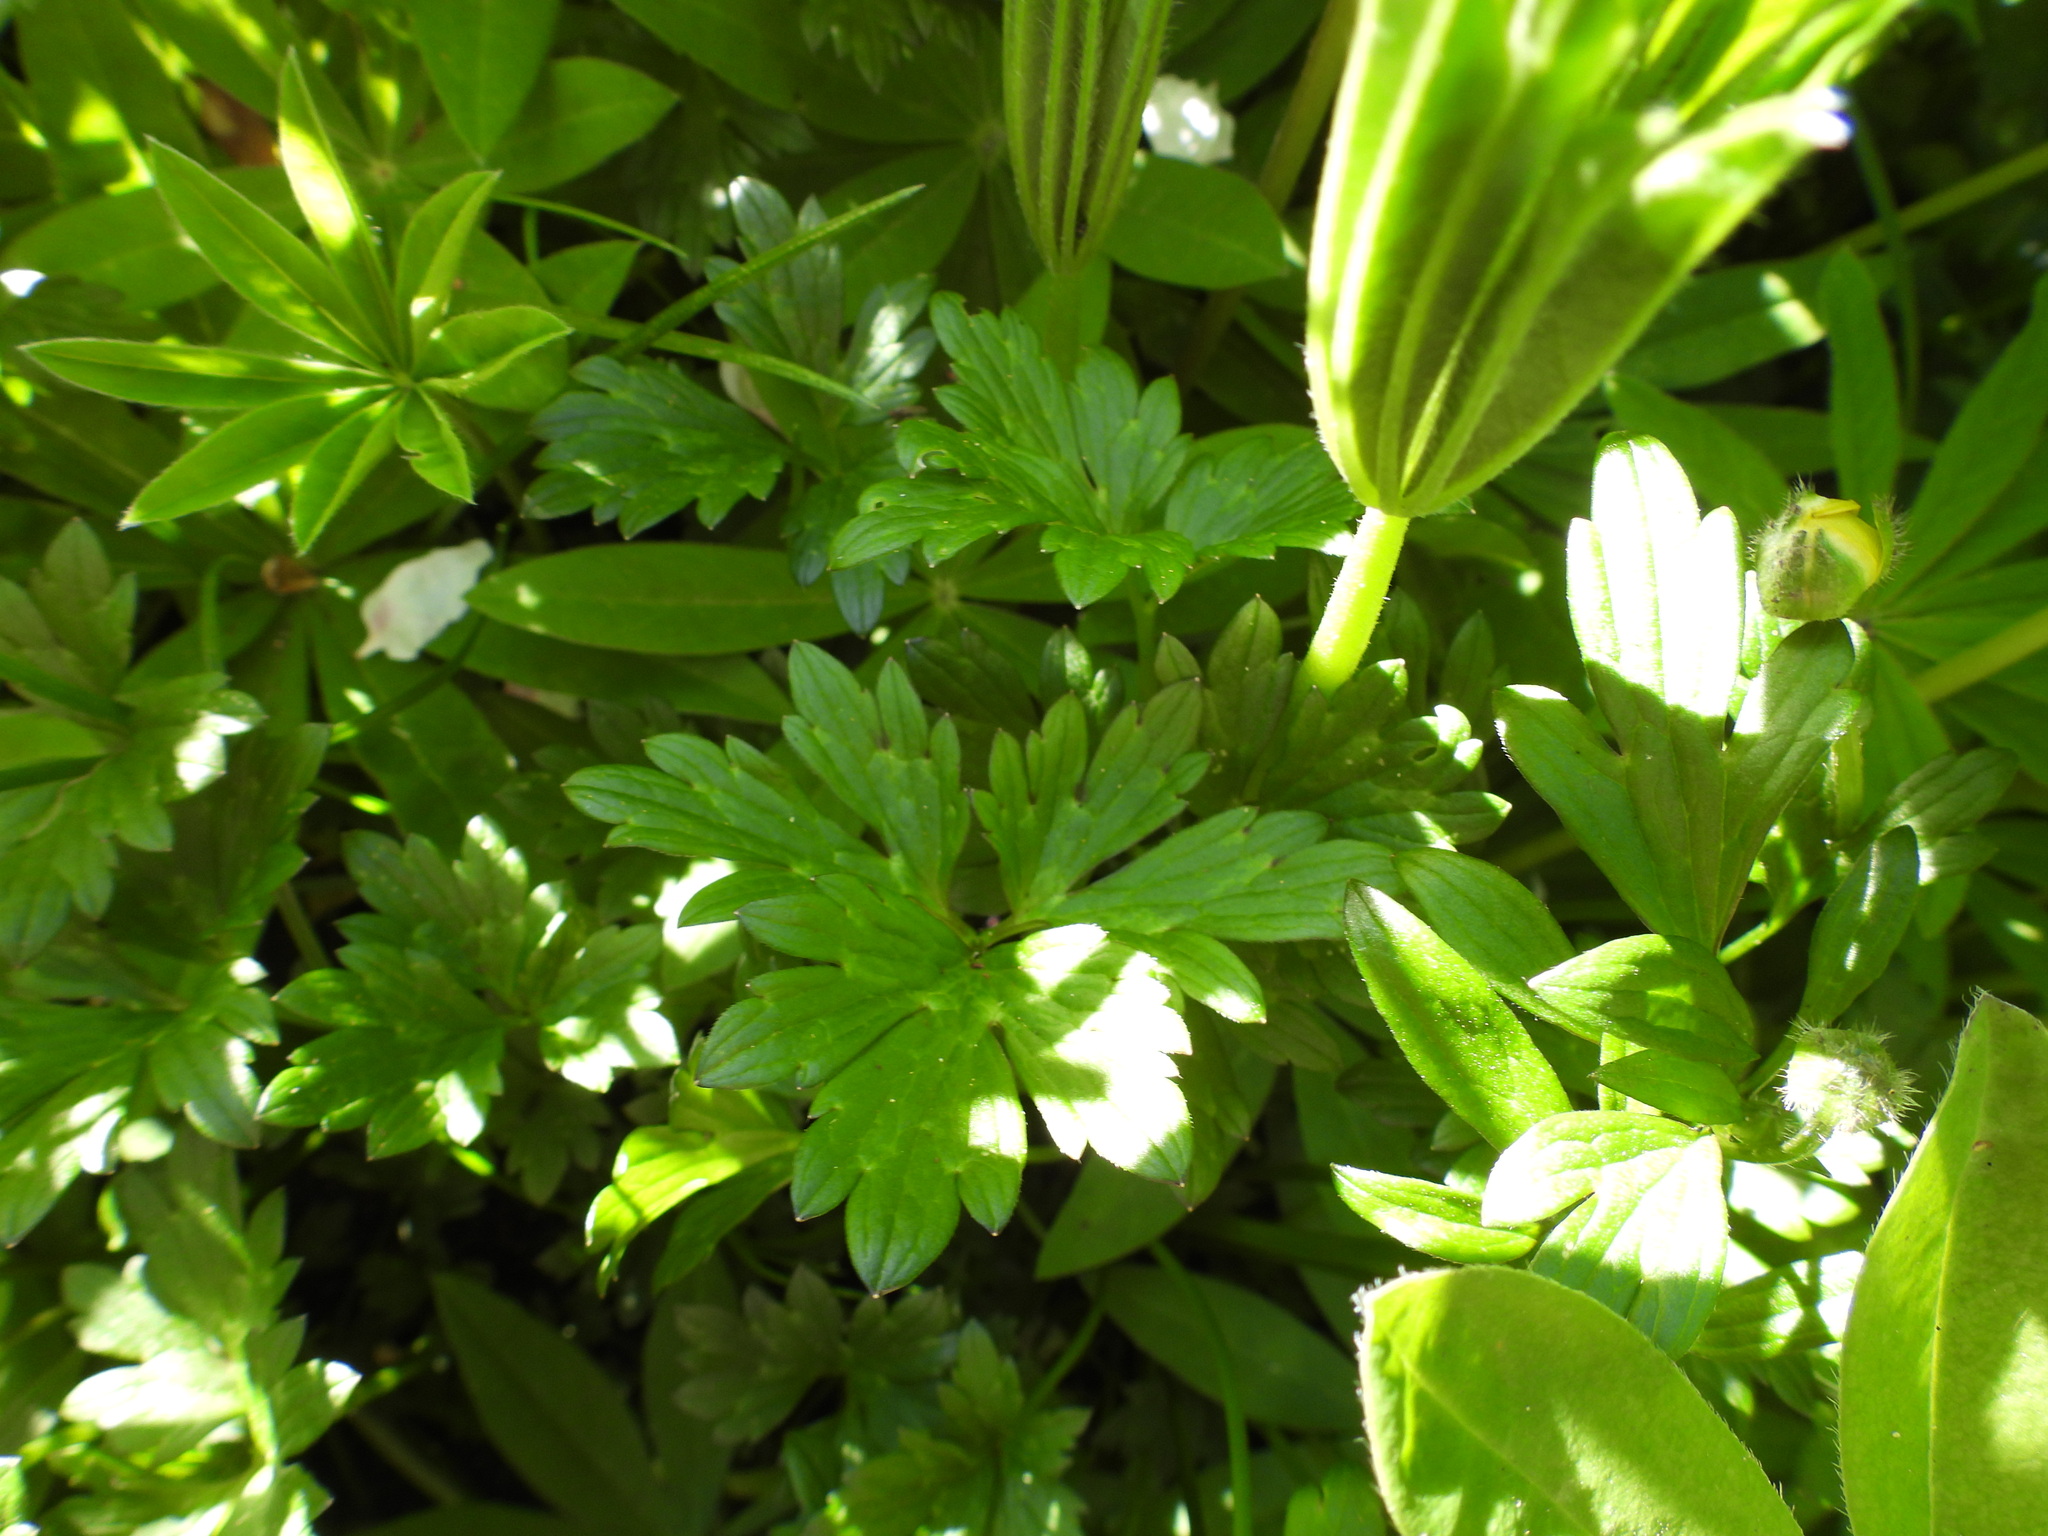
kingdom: Plantae
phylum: Tracheophyta
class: Magnoliopsida
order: Ranunculales
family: Ranunculaceae
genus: Ranunculus
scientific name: Ranunculus repens
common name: Creeping buttercup
